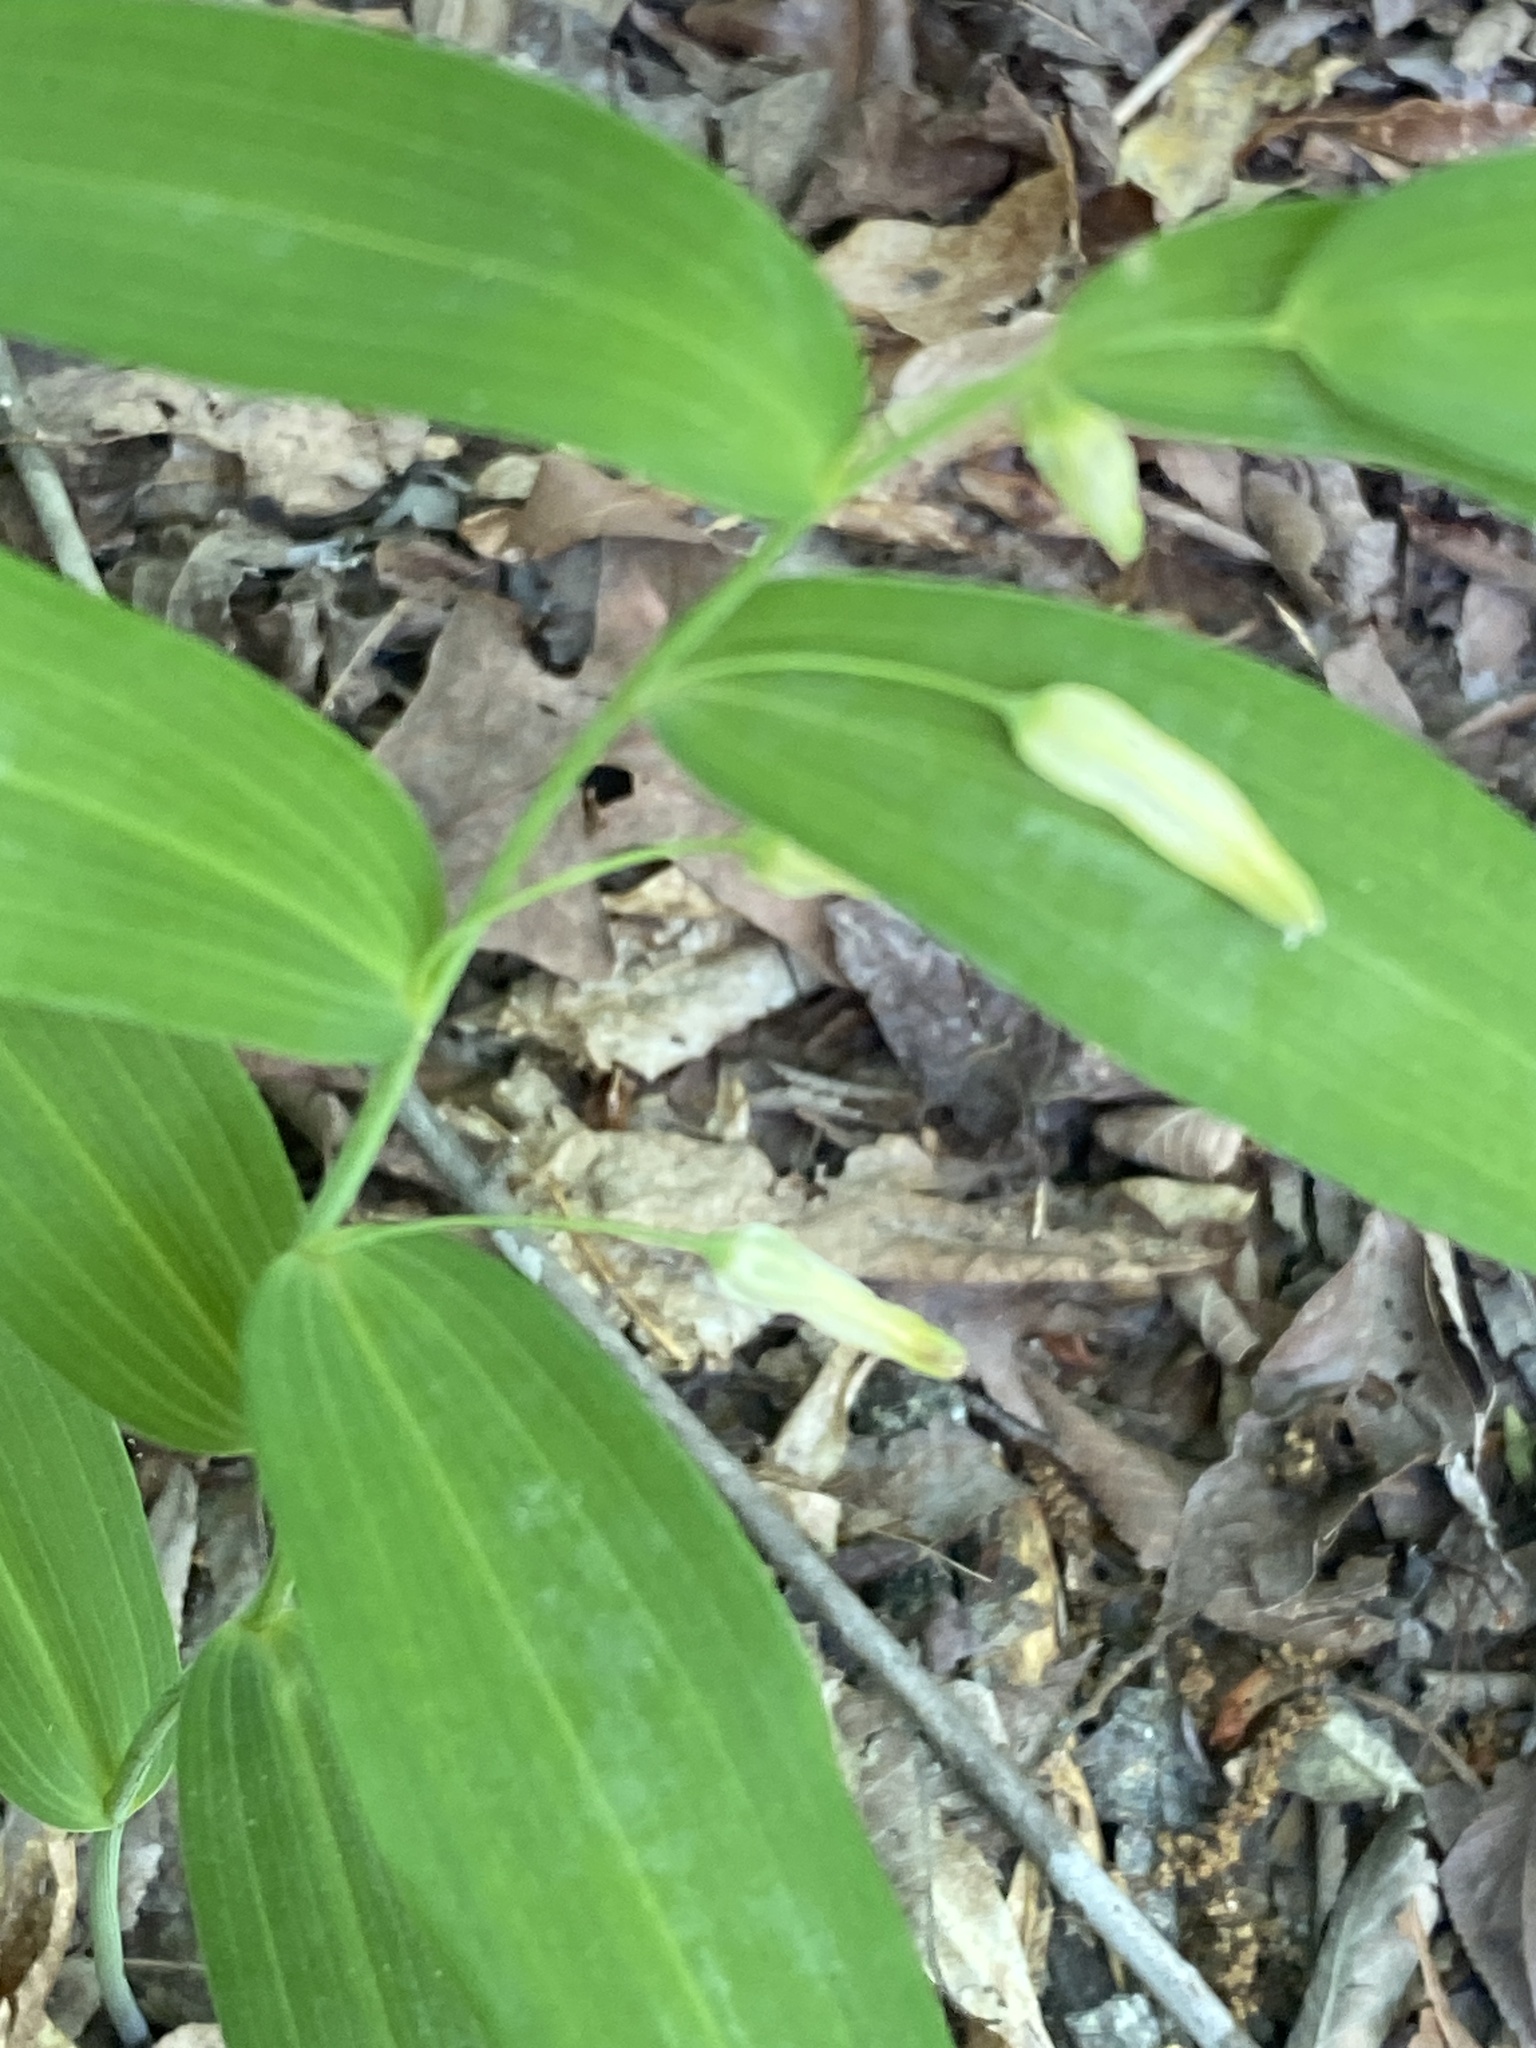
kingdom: Plantae
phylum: Tracheophyta
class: Liliopsida
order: Asparagales
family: Asparagaceae
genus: Polygonatum
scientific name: Polygonatum biflorum
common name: American solomon's-seal
